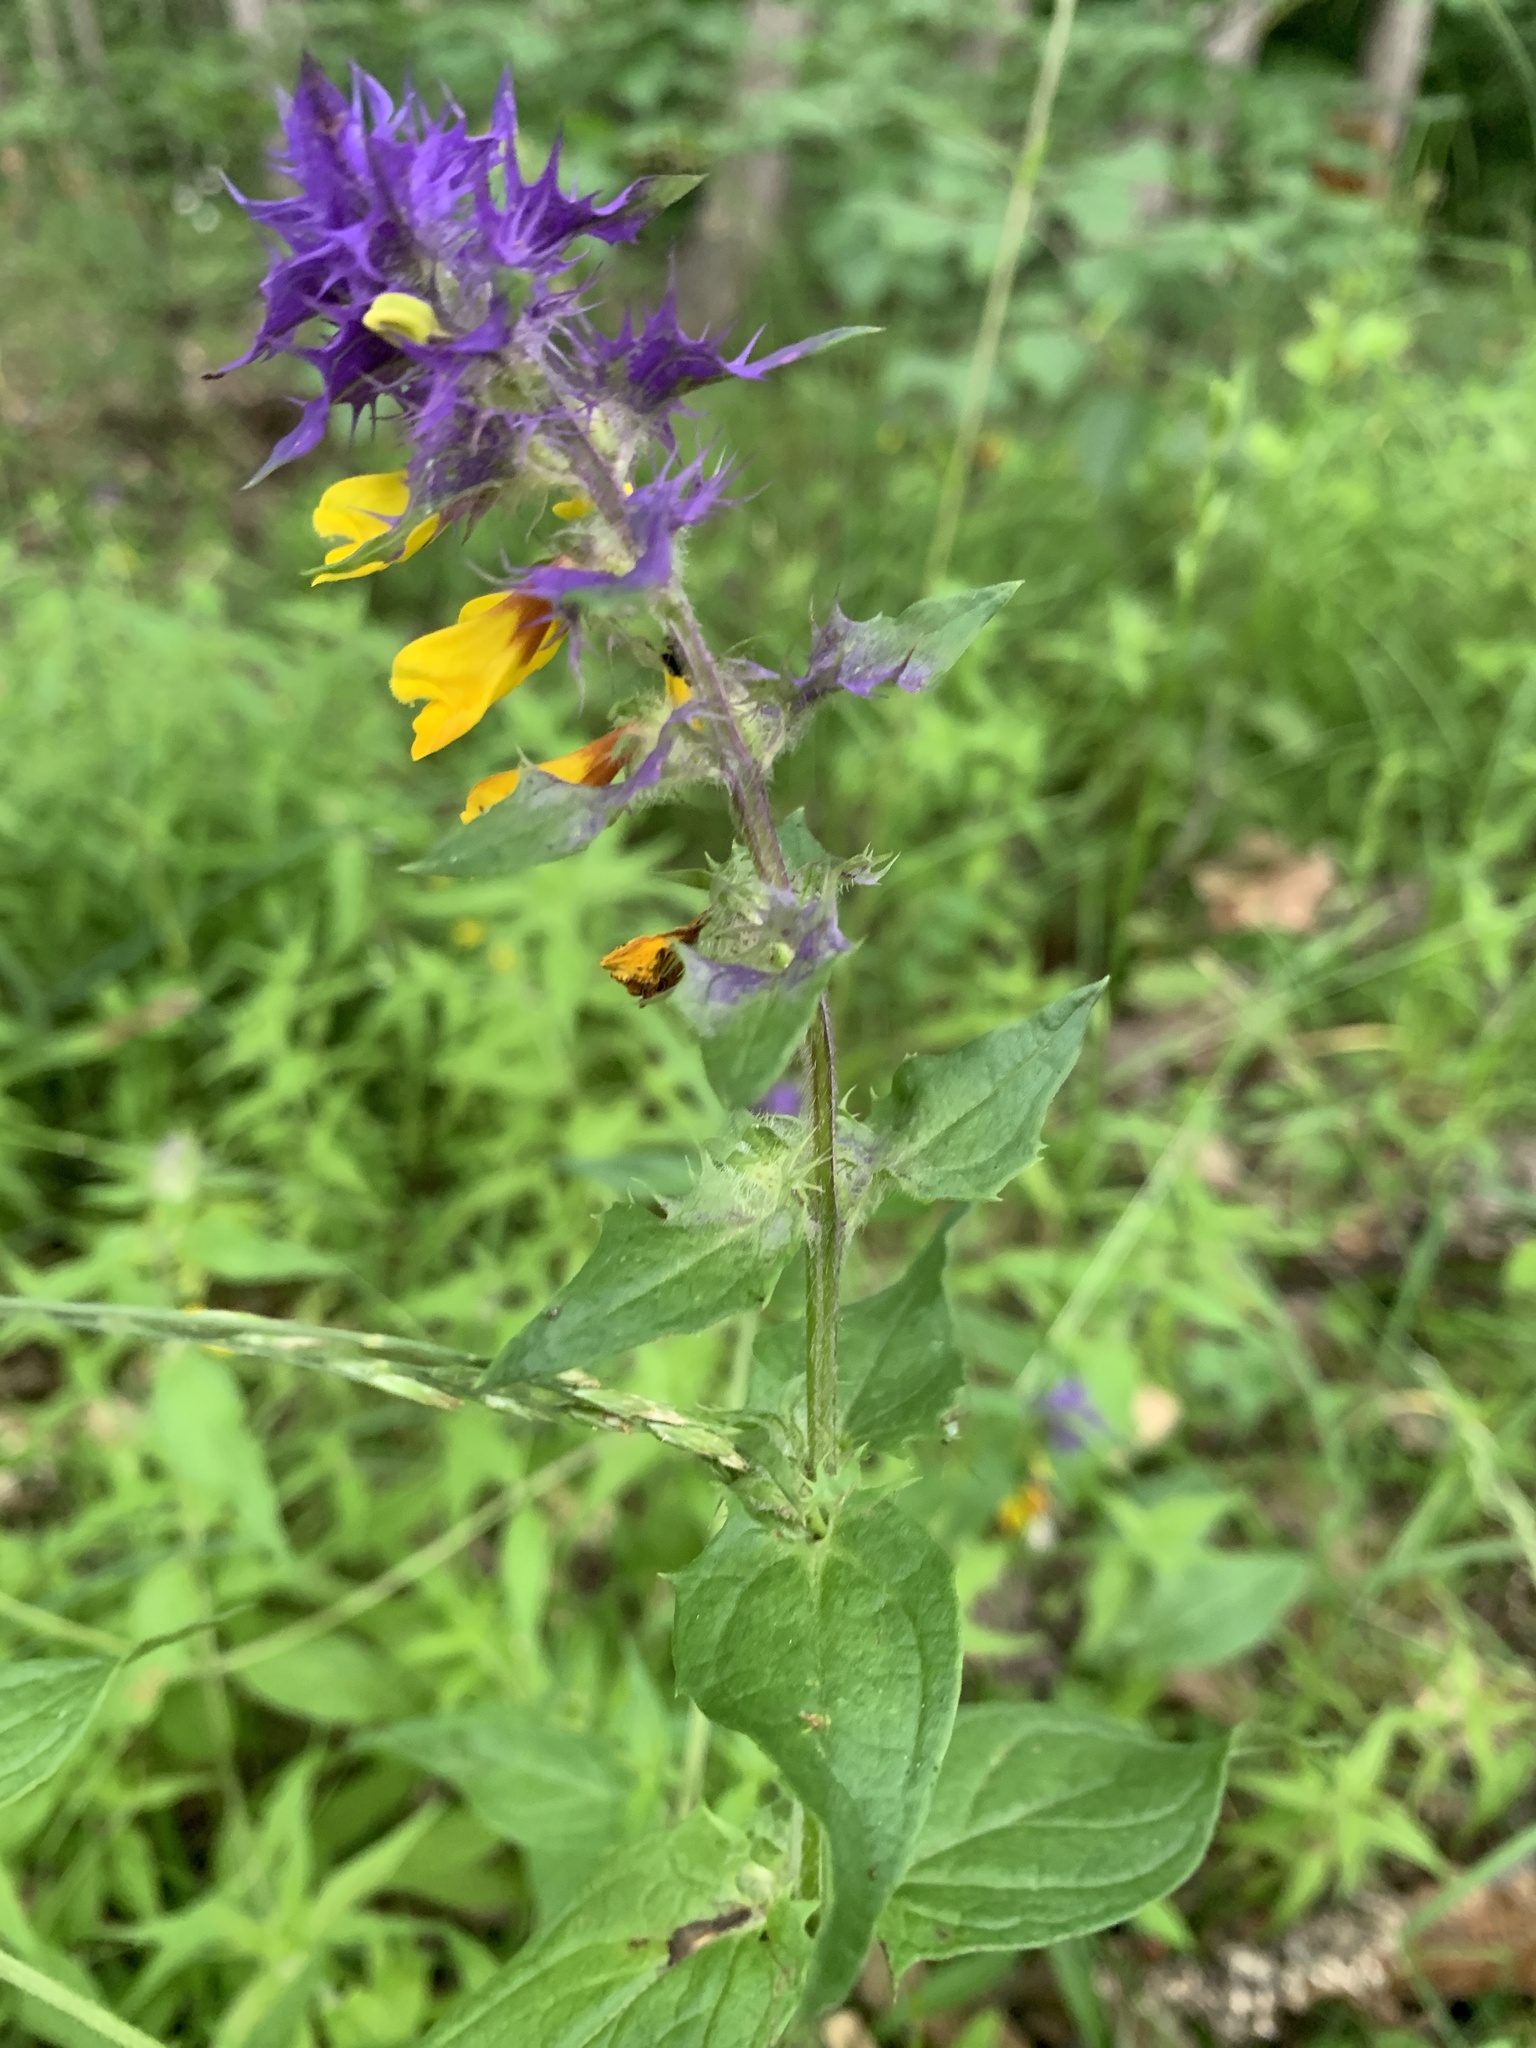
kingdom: Plantae
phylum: Tracheophyta
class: Magnoliopsida
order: Lamiales
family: Orobanchaceae
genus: Melampyrum
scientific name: Melampyrum nemorosum
